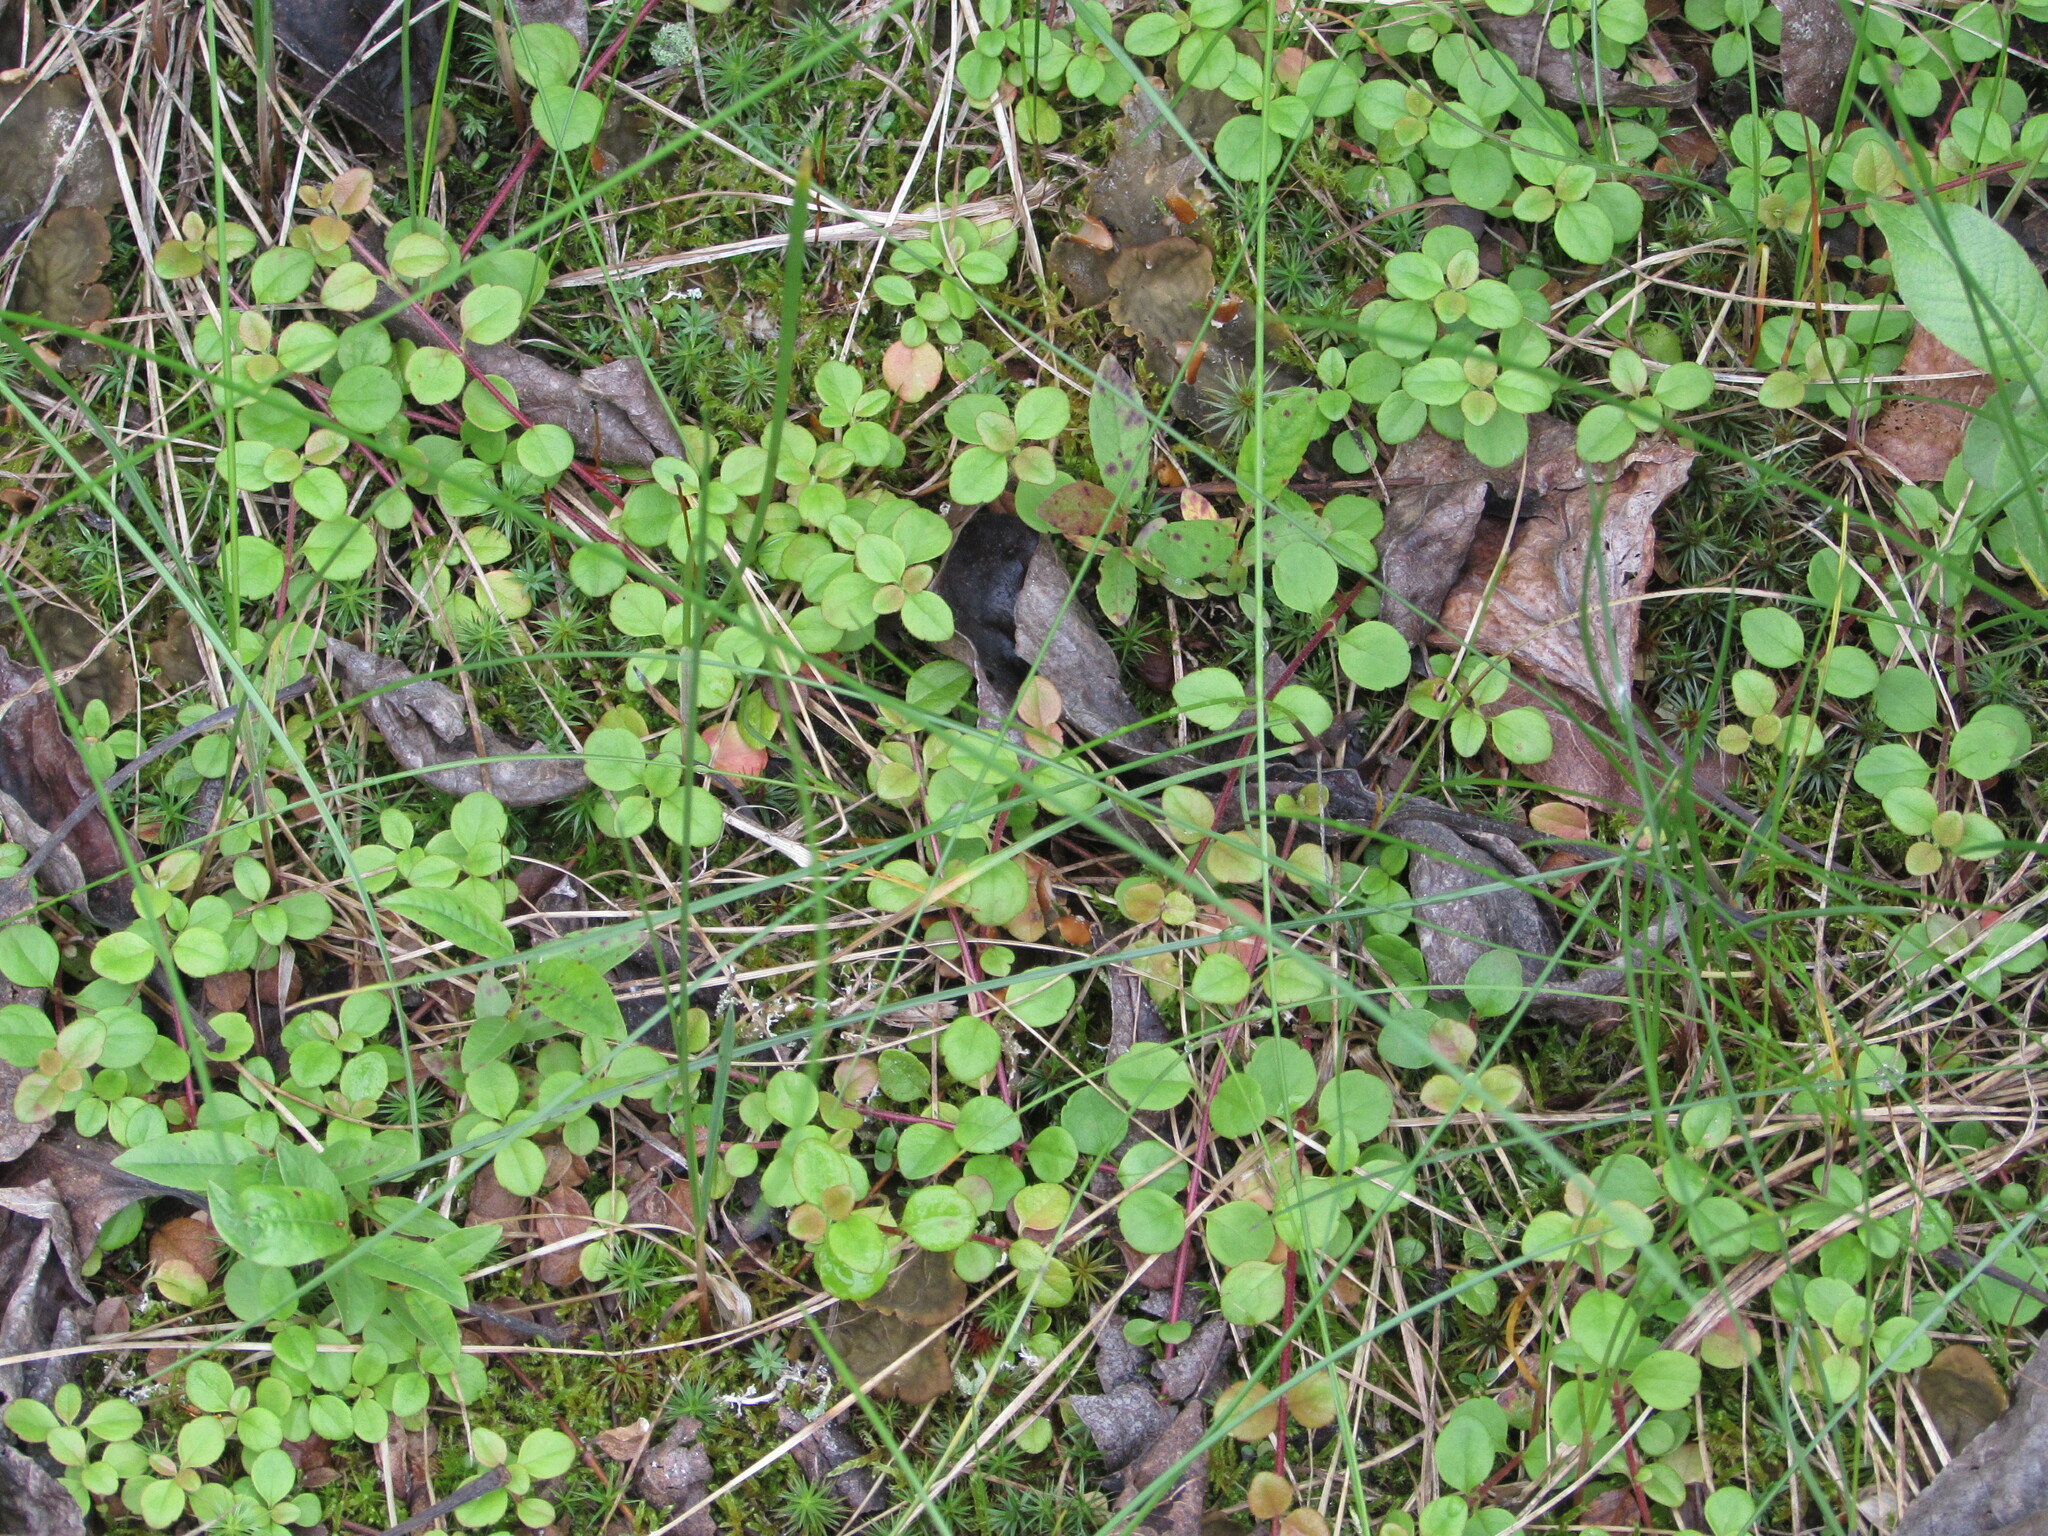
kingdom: Plantae
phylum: Tracheophyta
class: Magnoliopsida
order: Dipsacales
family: Caprifoliaceae
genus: Linnaea
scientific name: Linnaea borealis
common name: Twinflower
